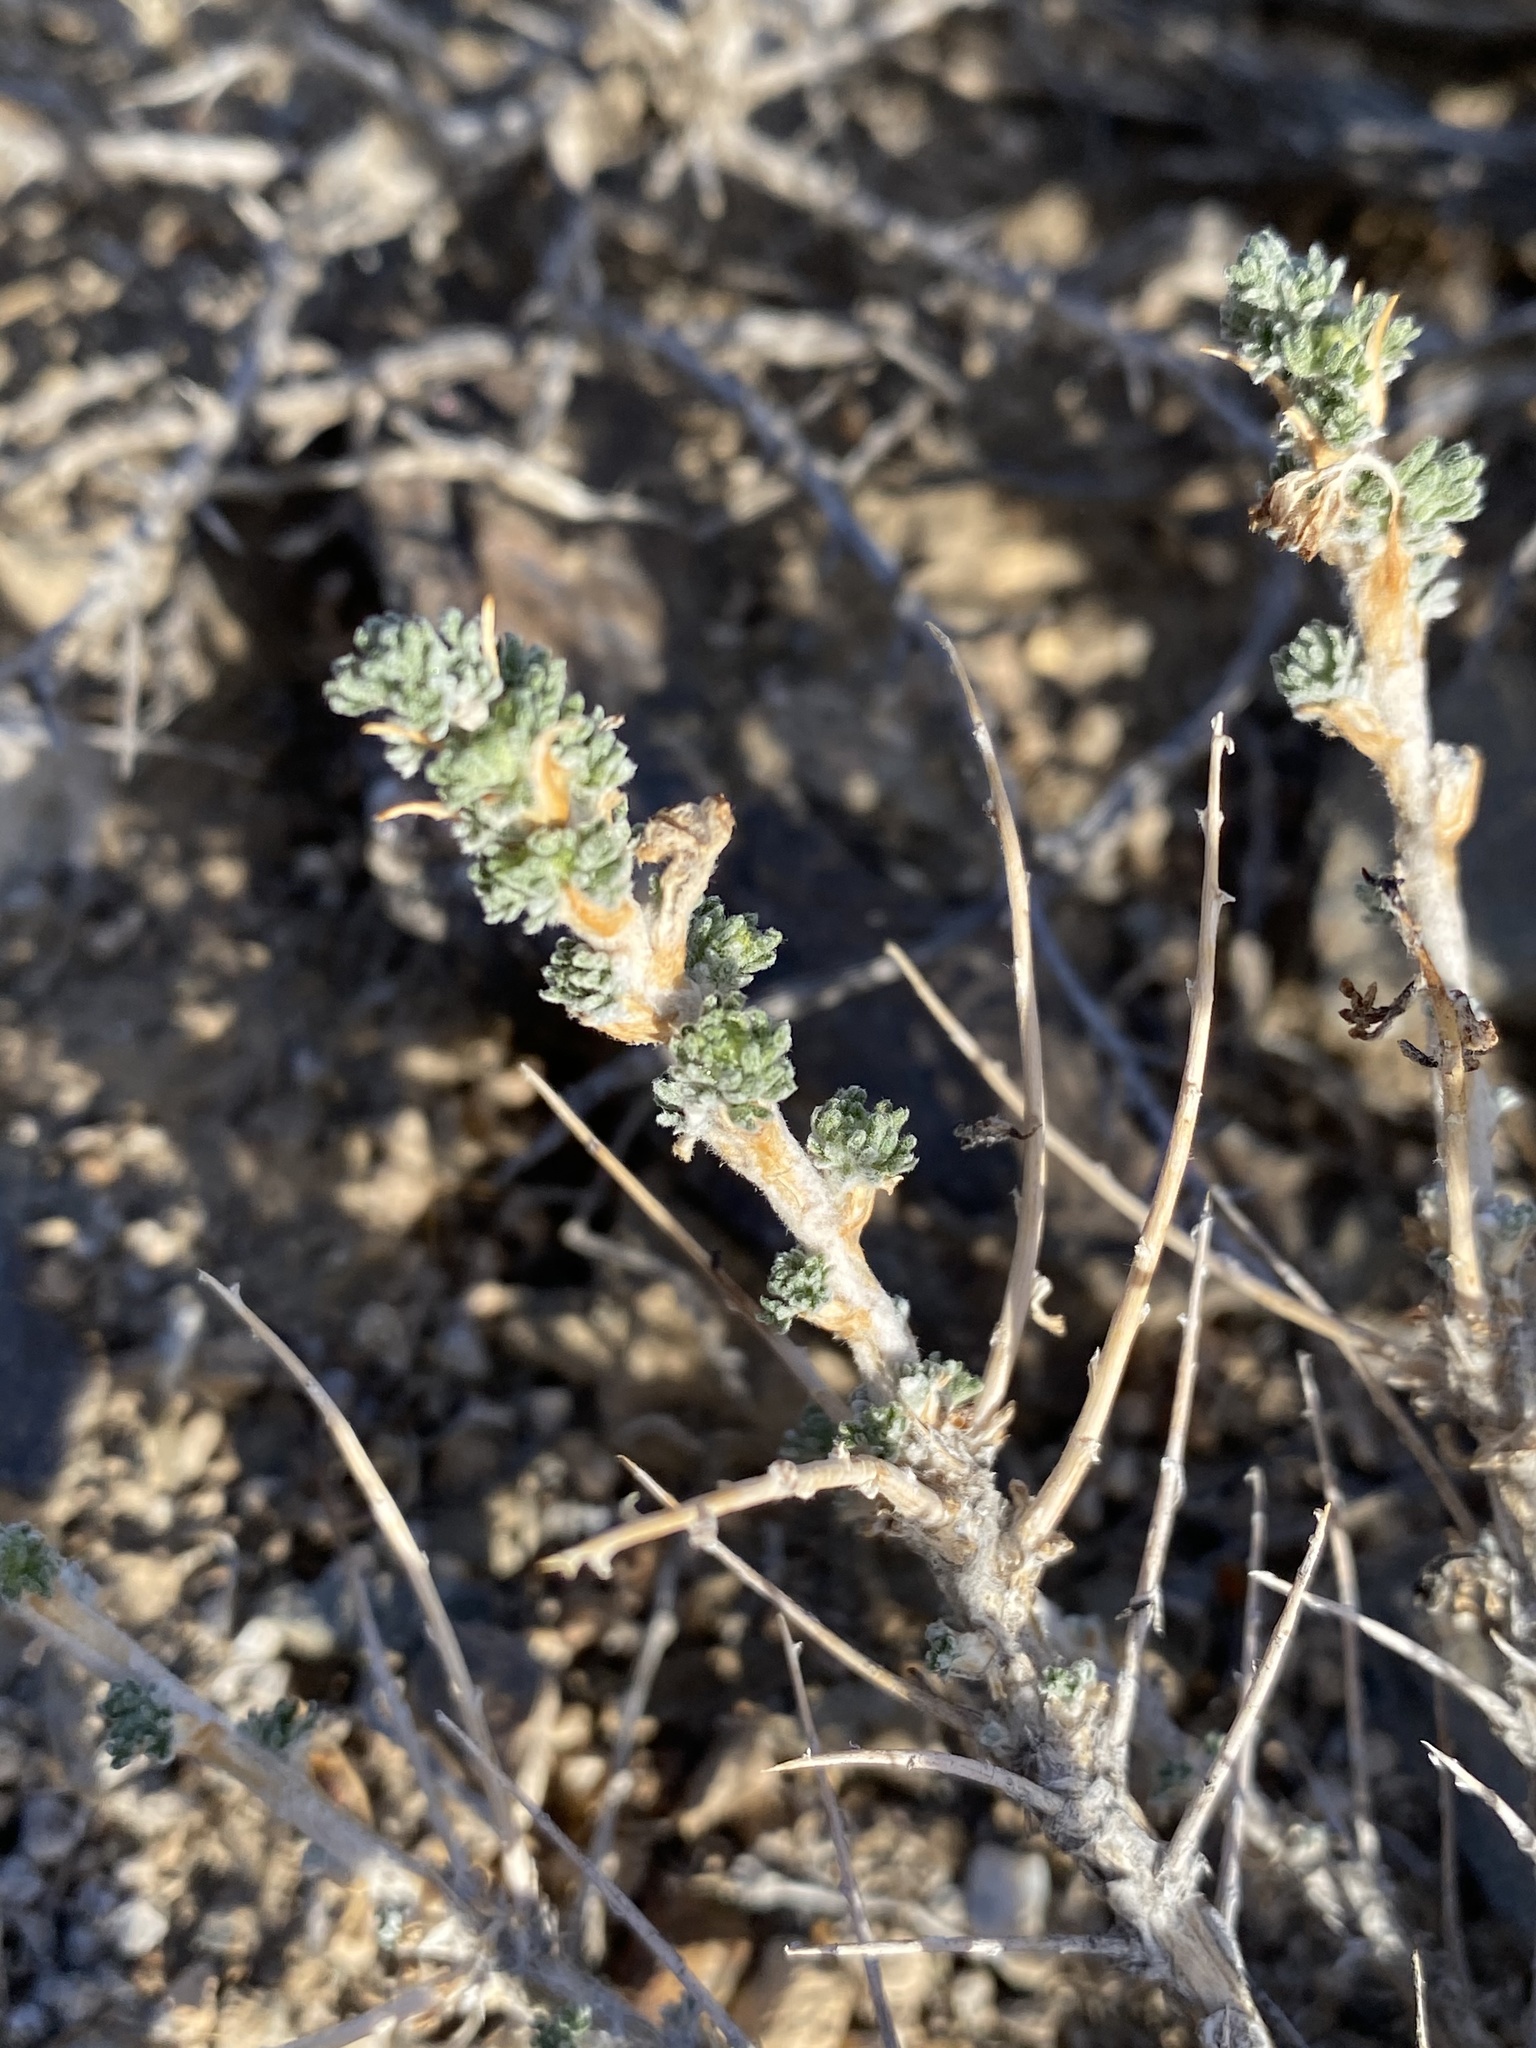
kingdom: Plantae
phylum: Tracheophyta
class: Magnoliopsida
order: Asterales
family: Asteraceae
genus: Artemisia
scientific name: Artemisia spinescens
